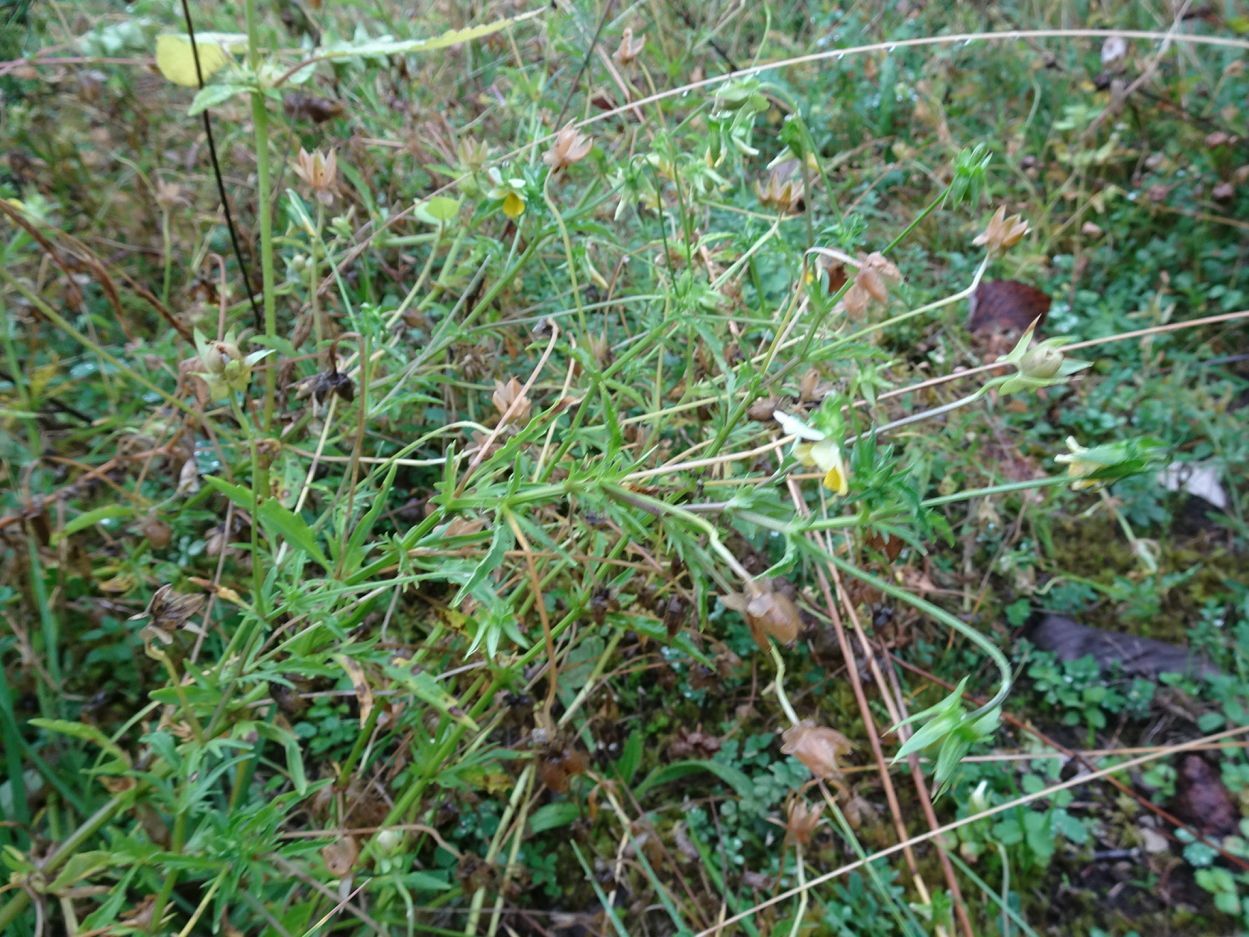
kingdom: Plantae
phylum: Tracheophyta
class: Magnoliopsida
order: Malpighiales
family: Violaceae
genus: Viola
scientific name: Viola arvensis
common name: Field pansy
